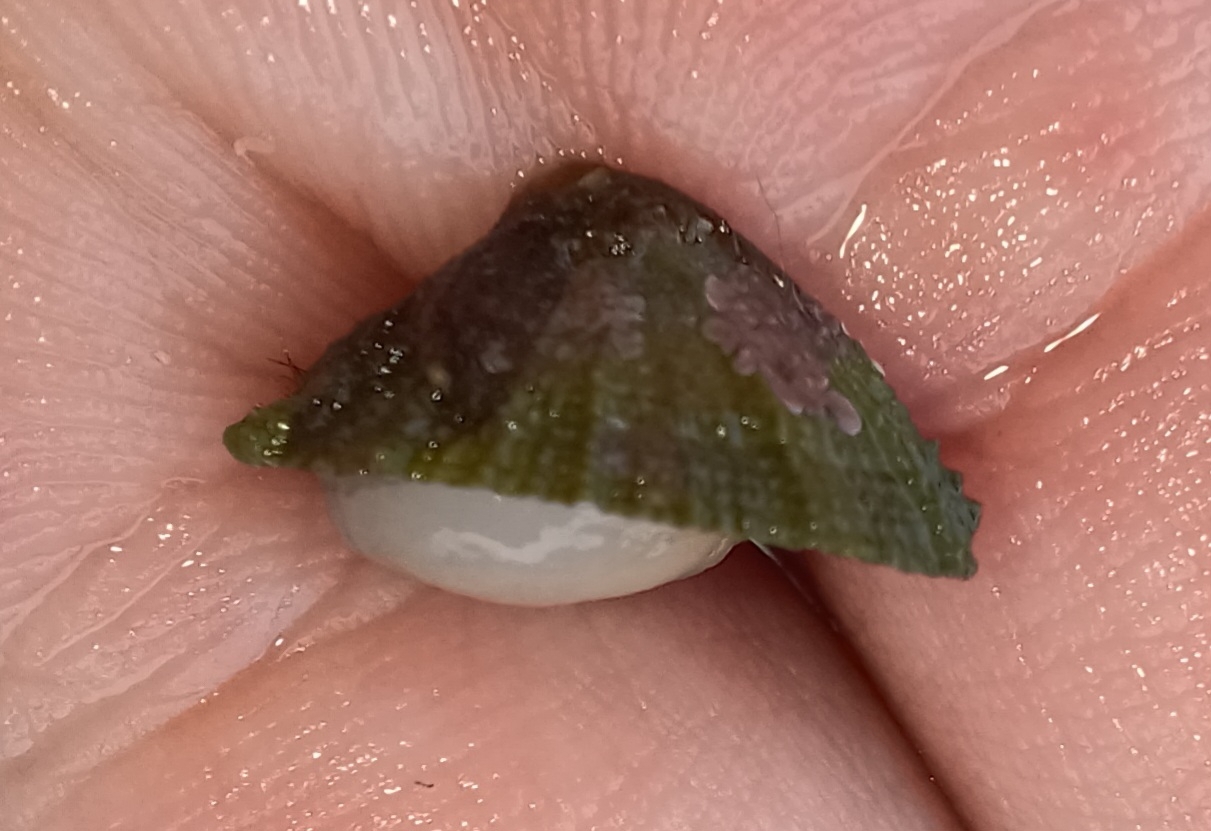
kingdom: Animalia
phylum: Mollusca
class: Gastropoda
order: Lepetellida
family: Fissurellidae
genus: Montfortula
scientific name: Montfortula rugosa
